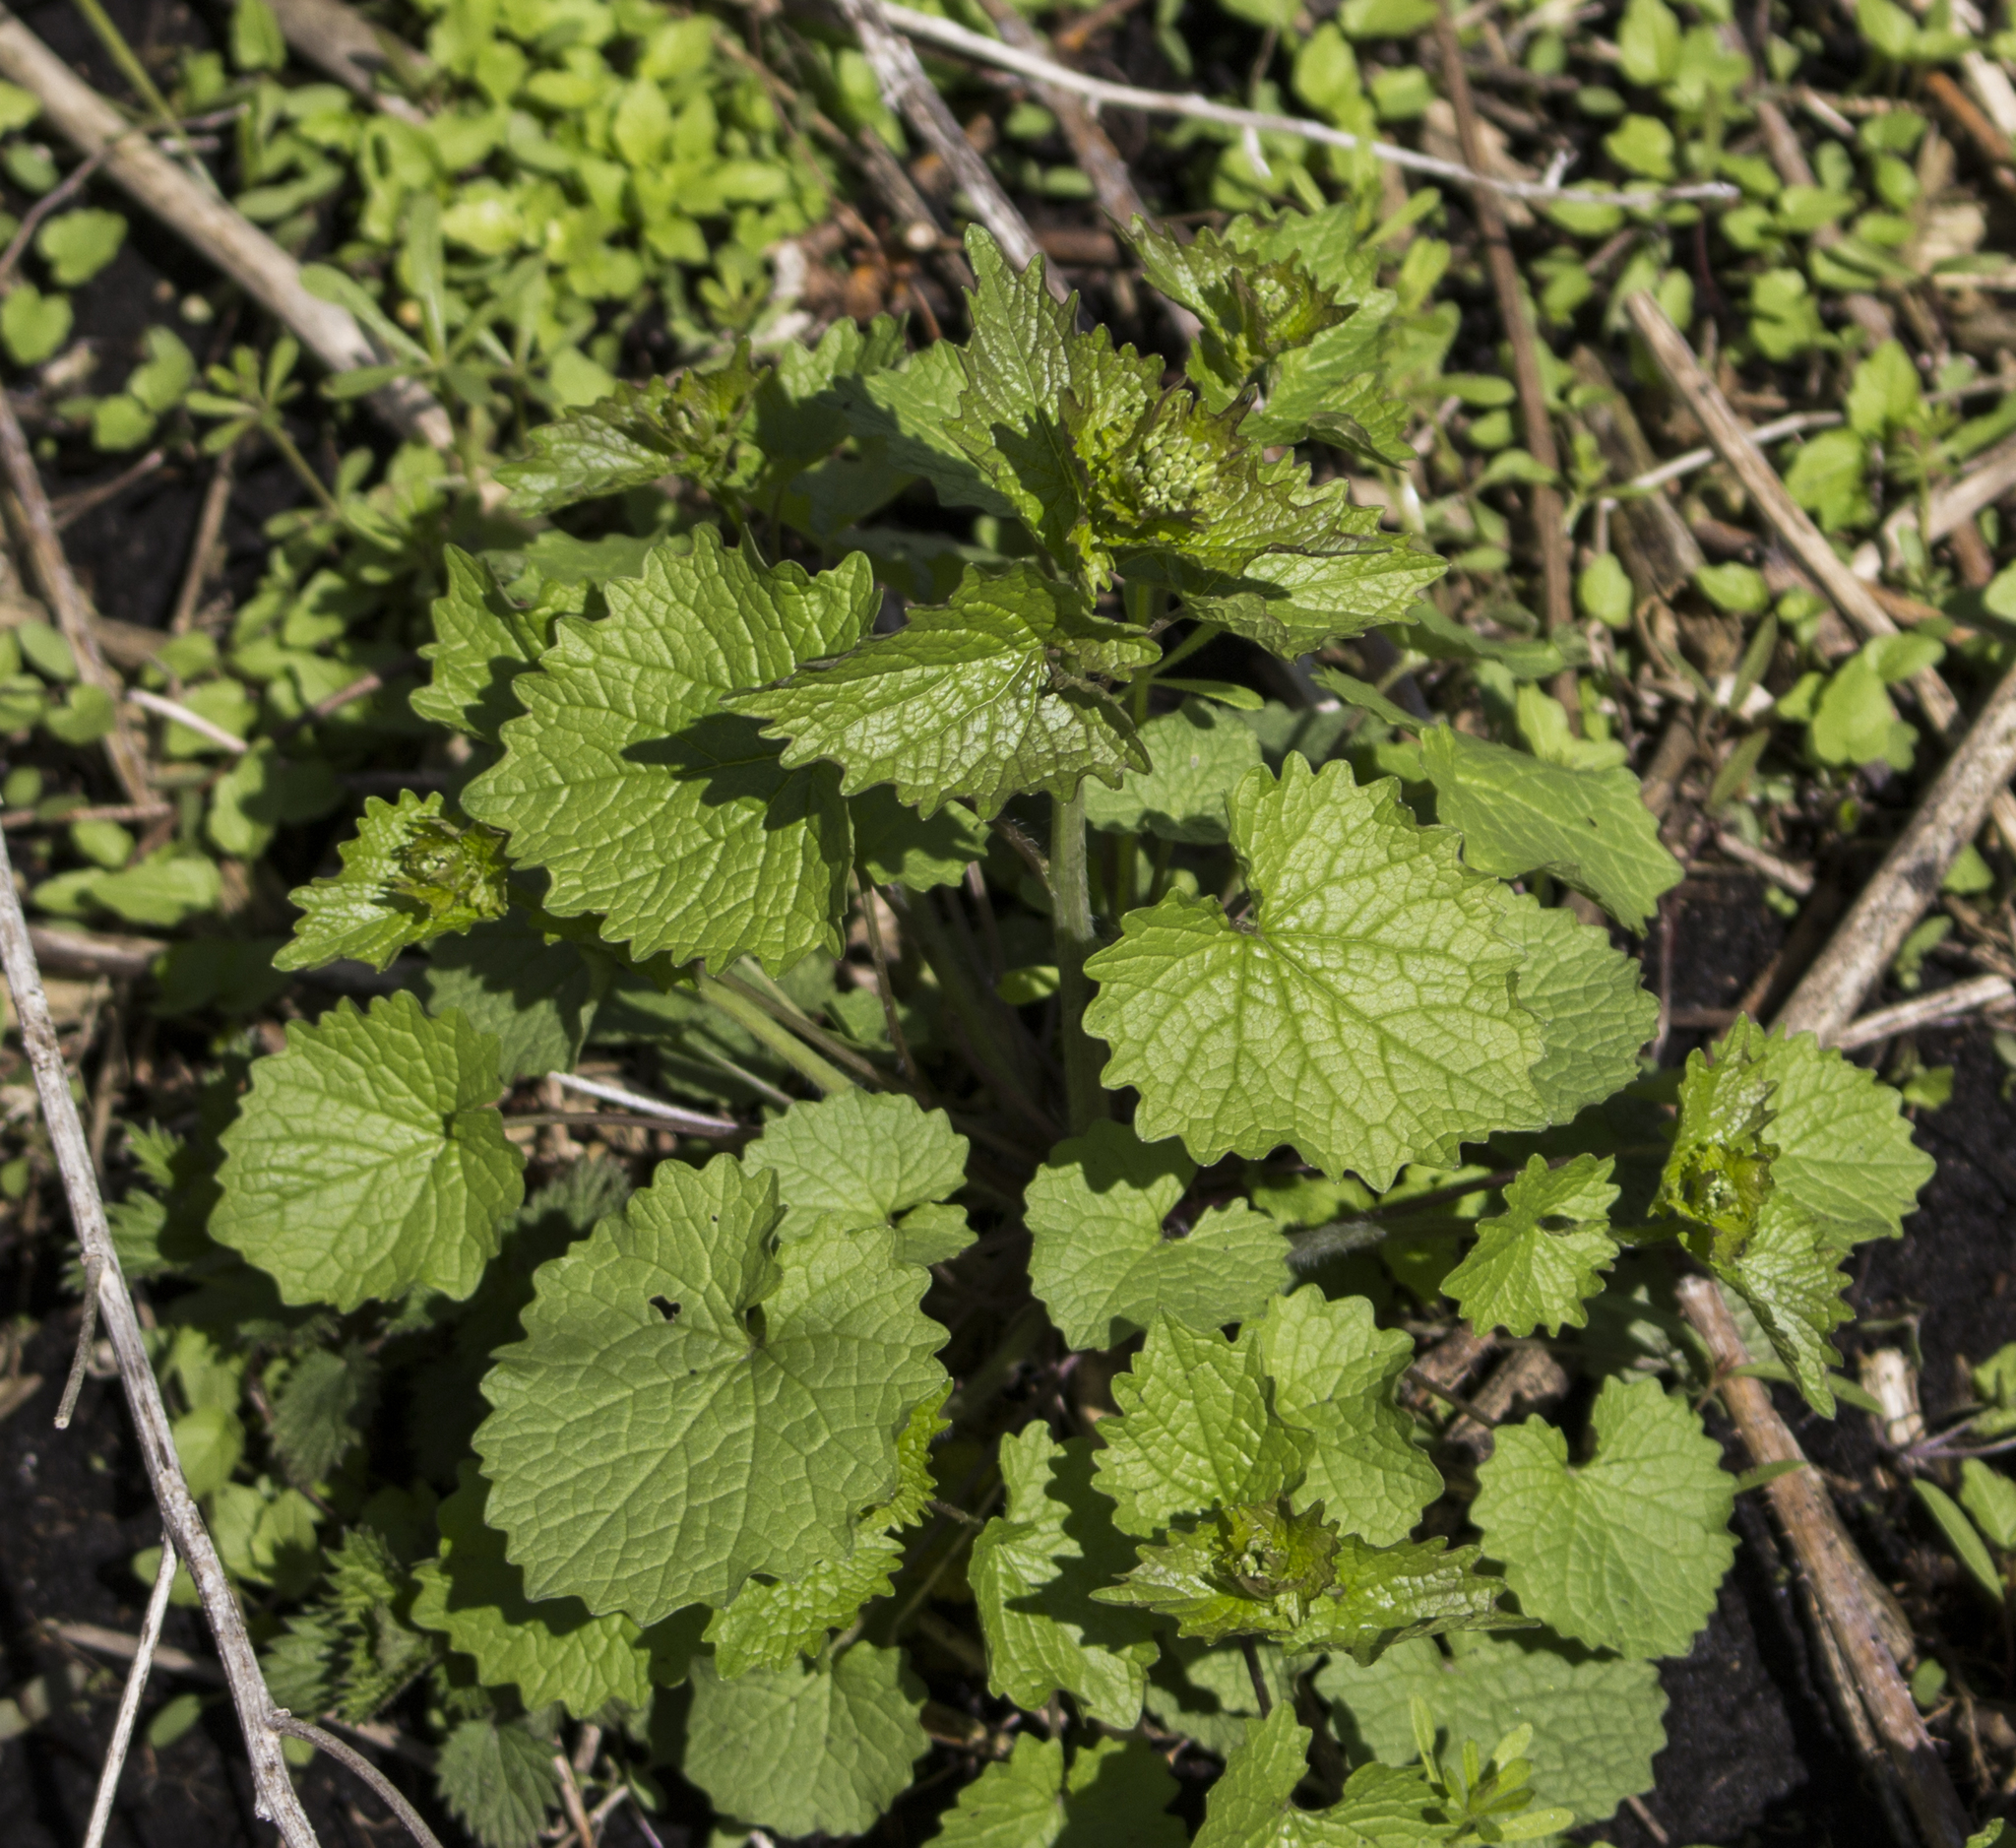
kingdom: Plantae
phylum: Tracheophyta
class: Magnoliopsida
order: Brassicales
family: Brassicaceae
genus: Alliaria
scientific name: Alliaria petiolata
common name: Garlic mustard
